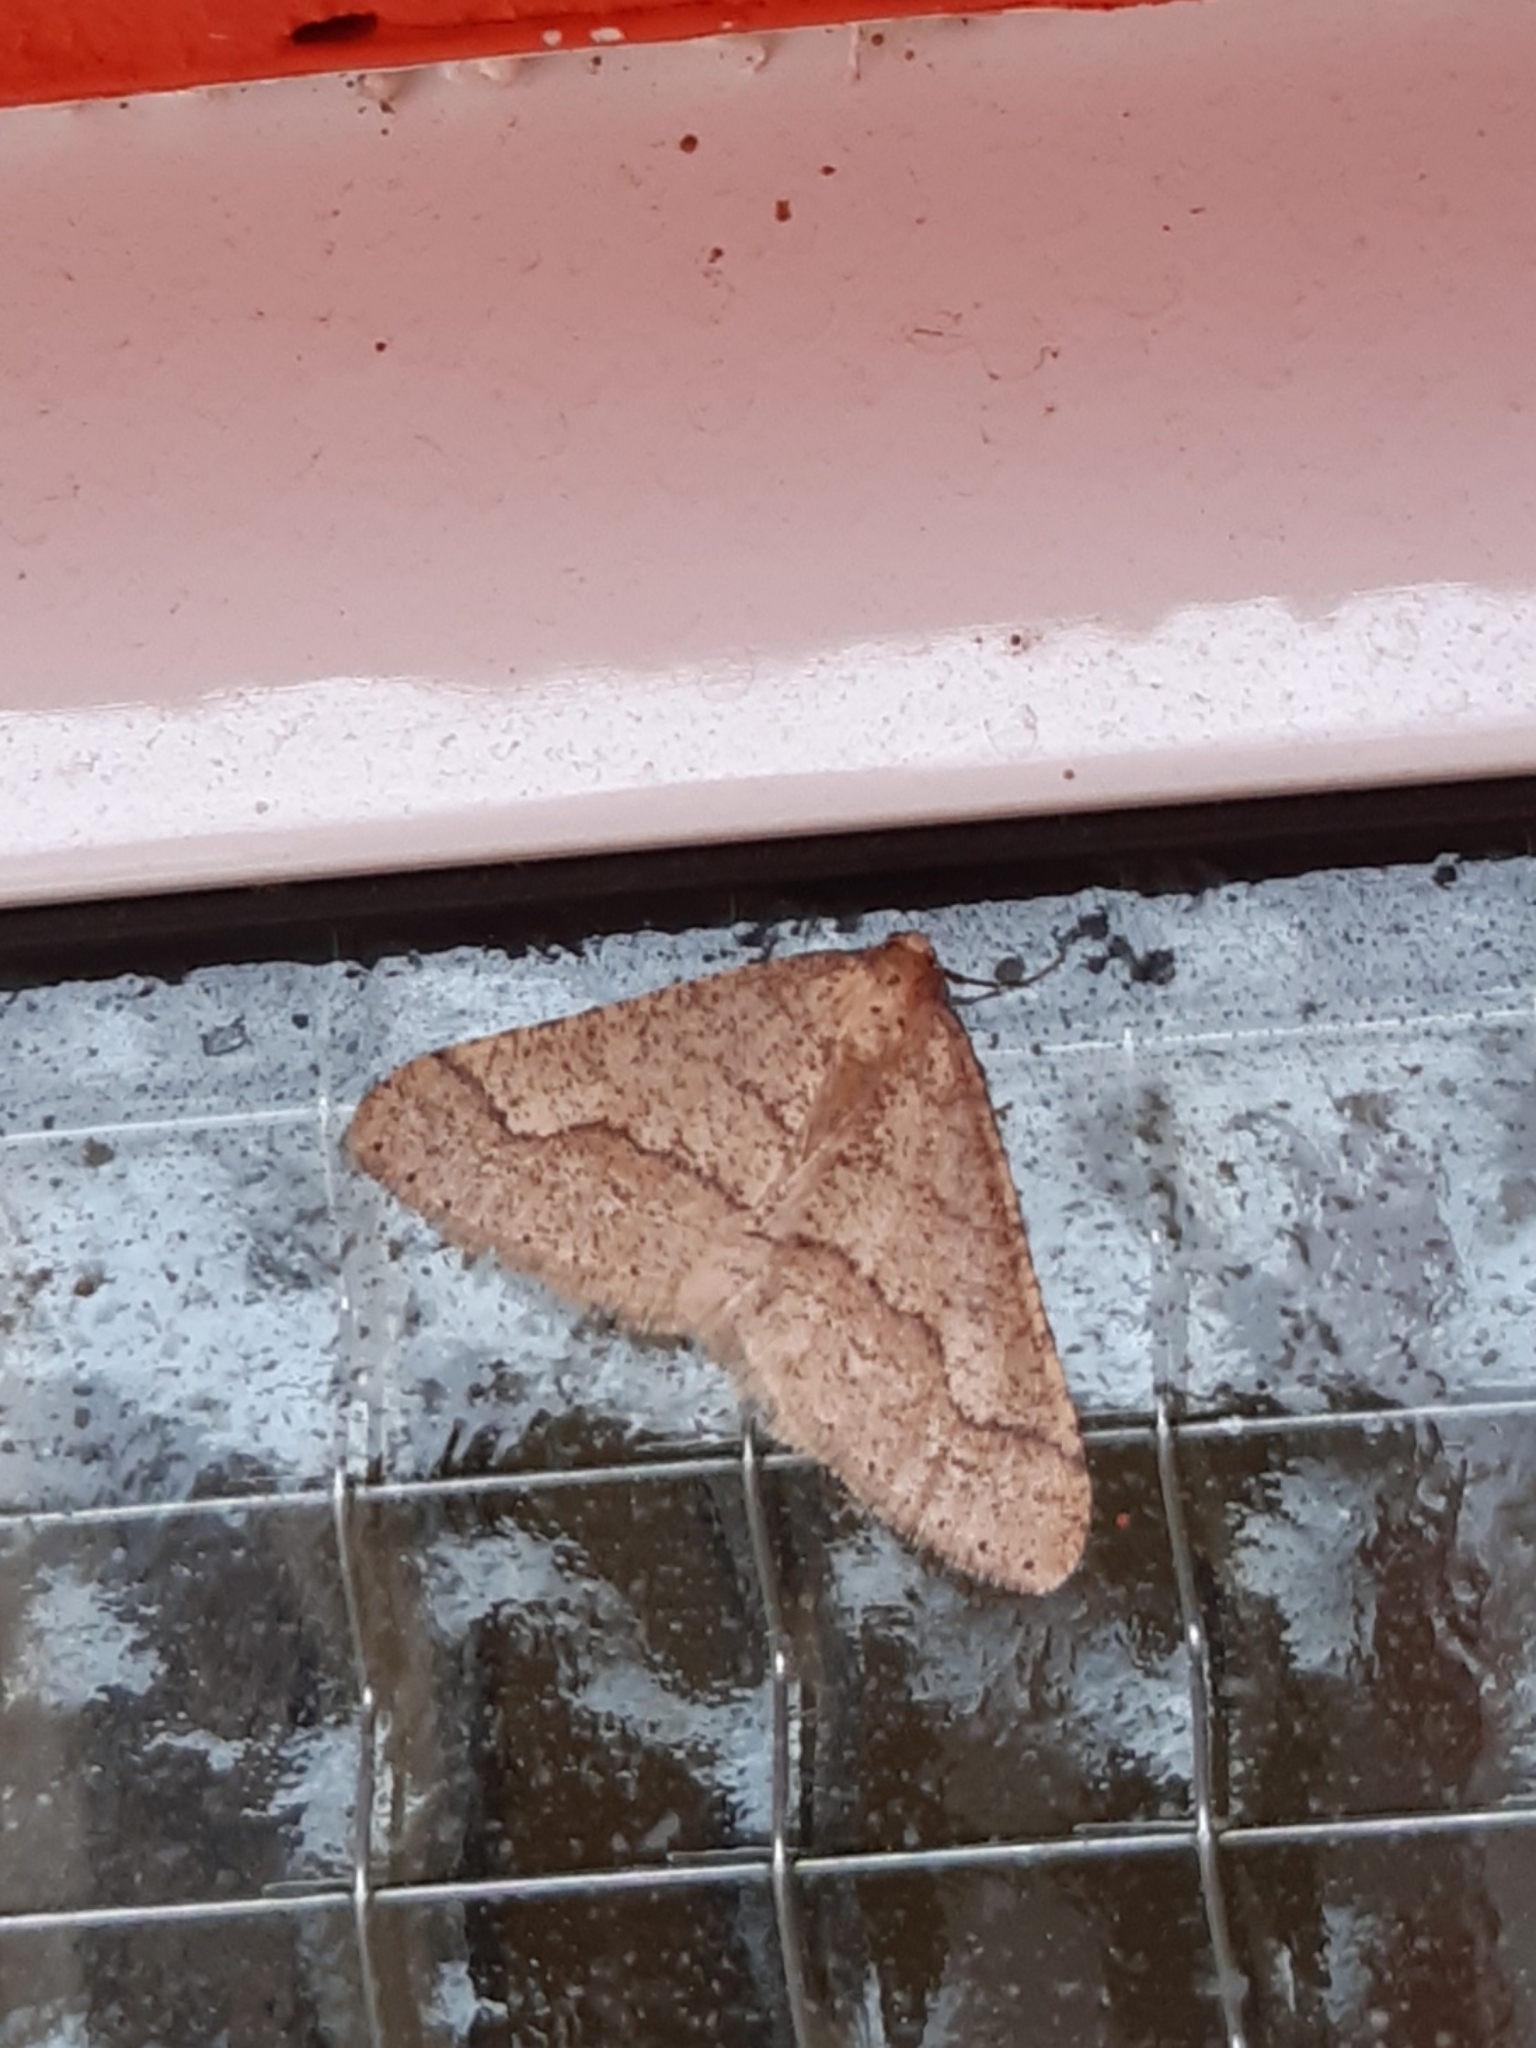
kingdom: Animalia
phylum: Arthropoda
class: Insecta
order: Lepidoptera
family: Geometridae
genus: Agriopis
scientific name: Agriopis marginaria
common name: Dotted border
